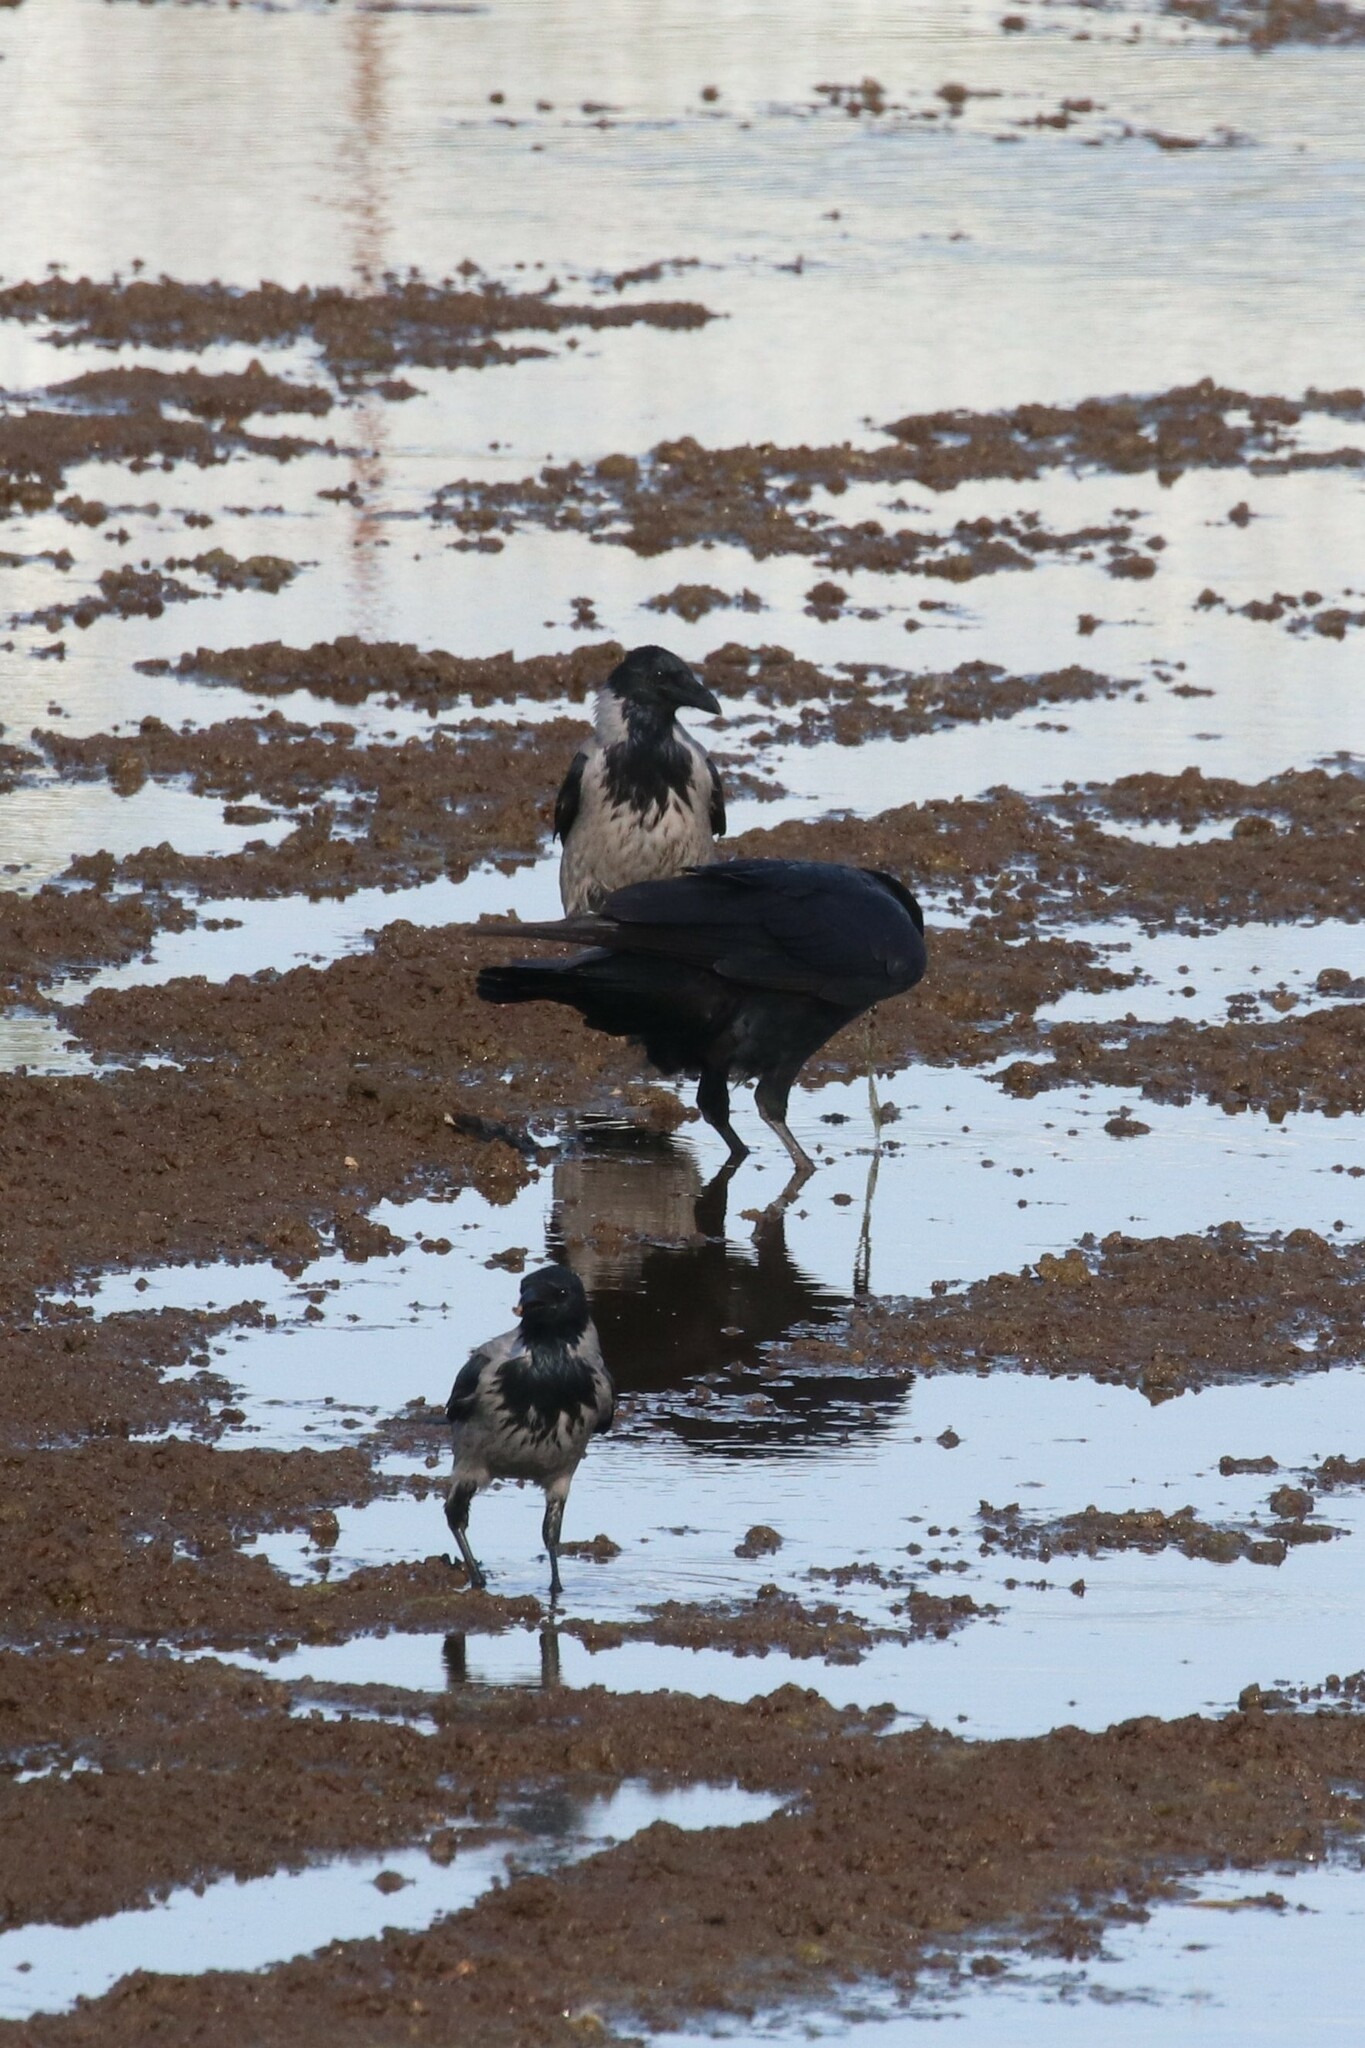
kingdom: Animalia
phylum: Chordata
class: Aves
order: Passeriformes
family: Corvidae
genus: Corvus
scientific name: Corvus cornix
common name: Hooded crow
